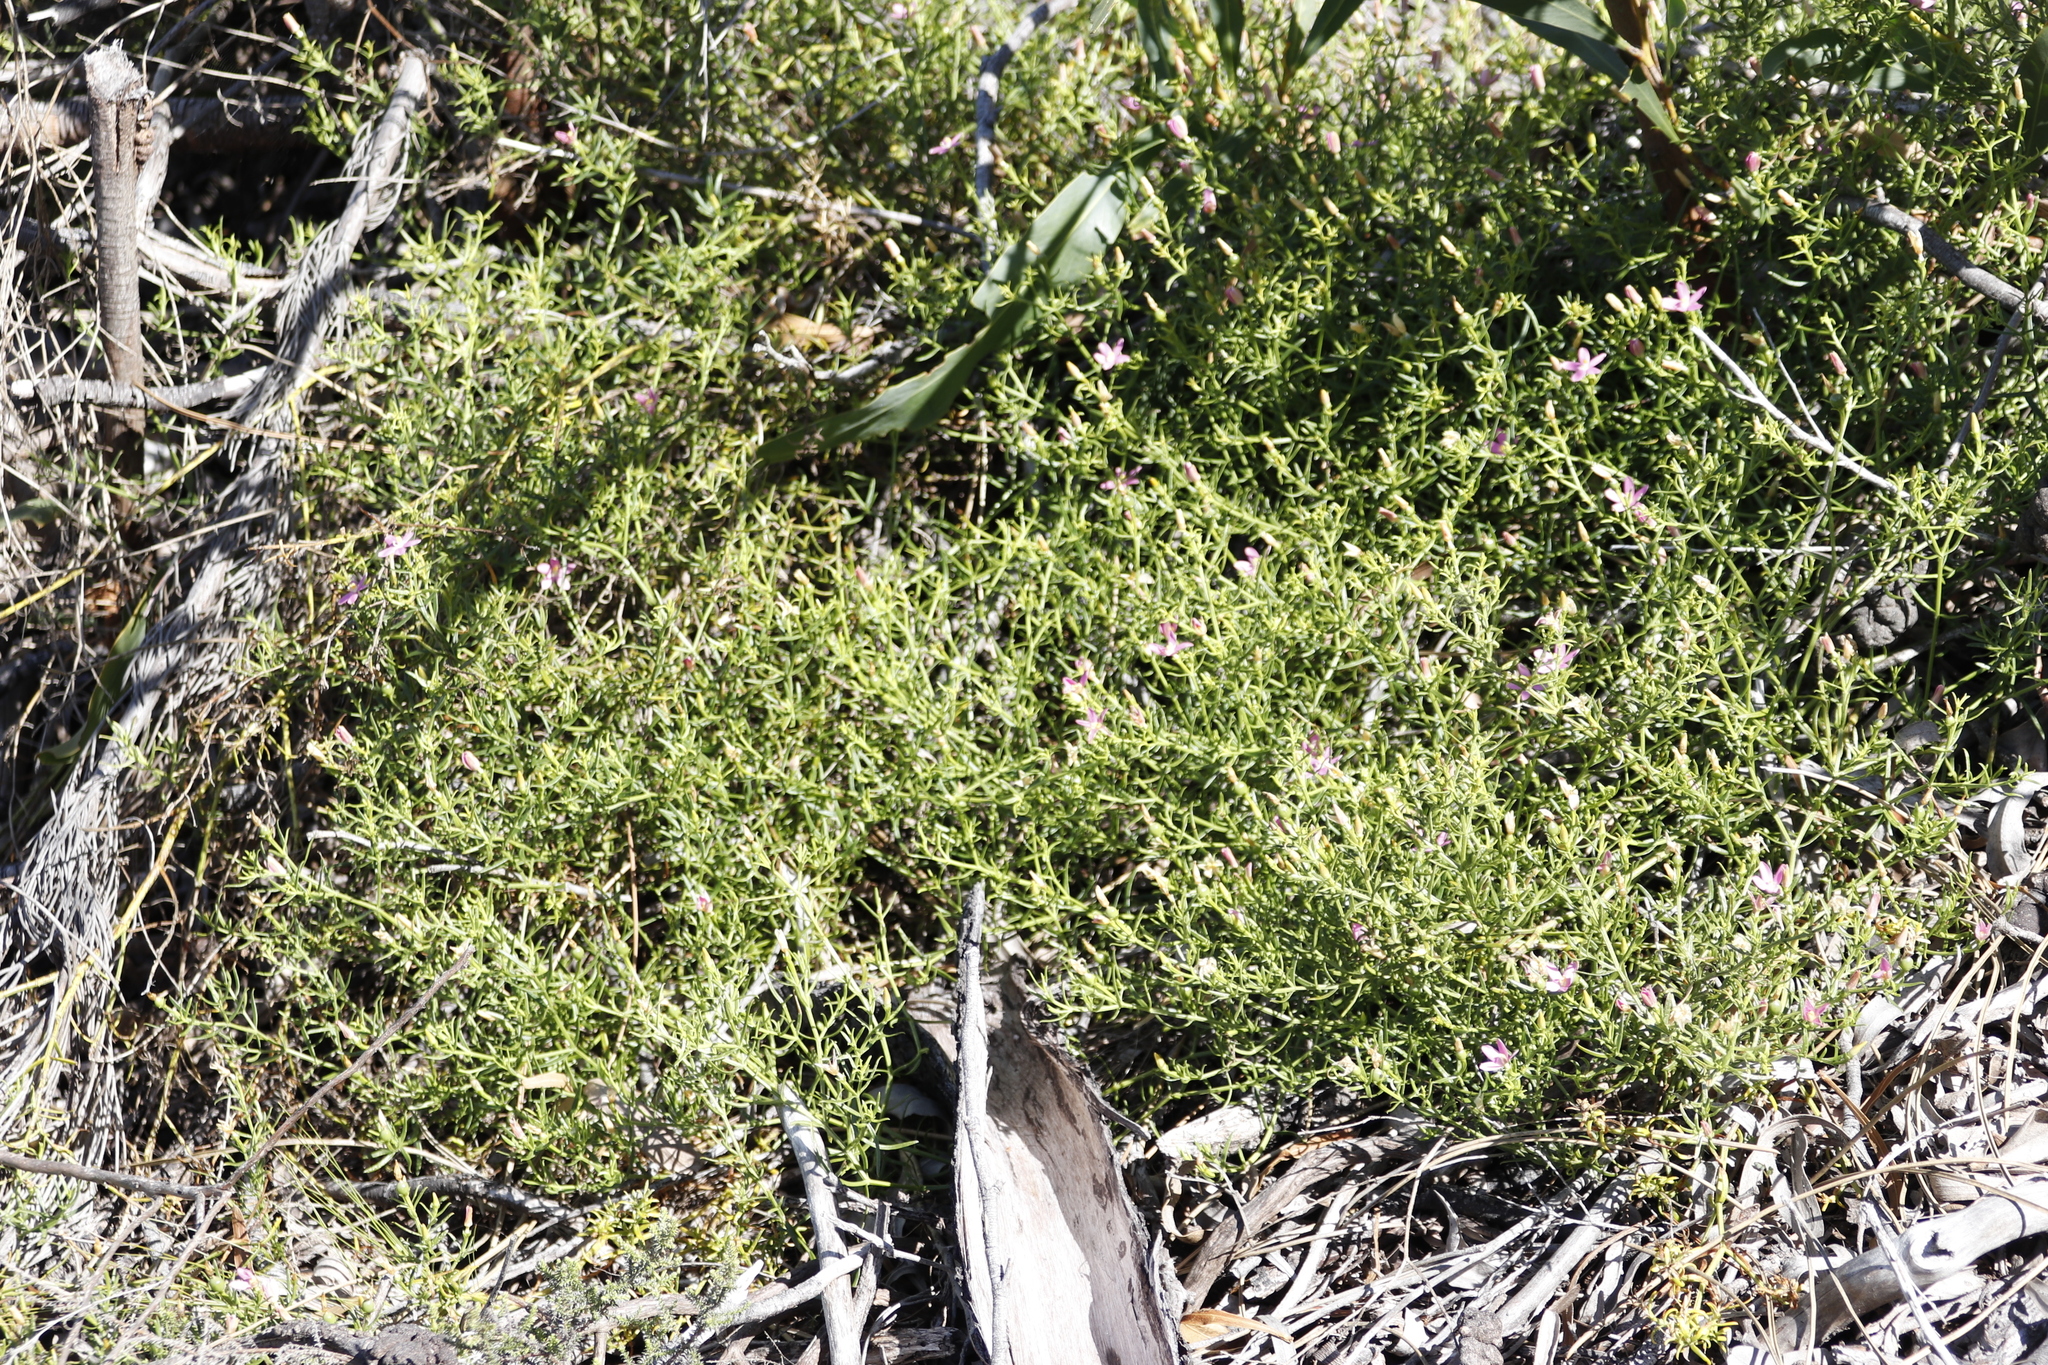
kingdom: Plantae
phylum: Tracheophyta
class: Magnoliopsida
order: Gentianales
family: Gentianaceae
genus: Chironia
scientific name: Chironia baccifera
